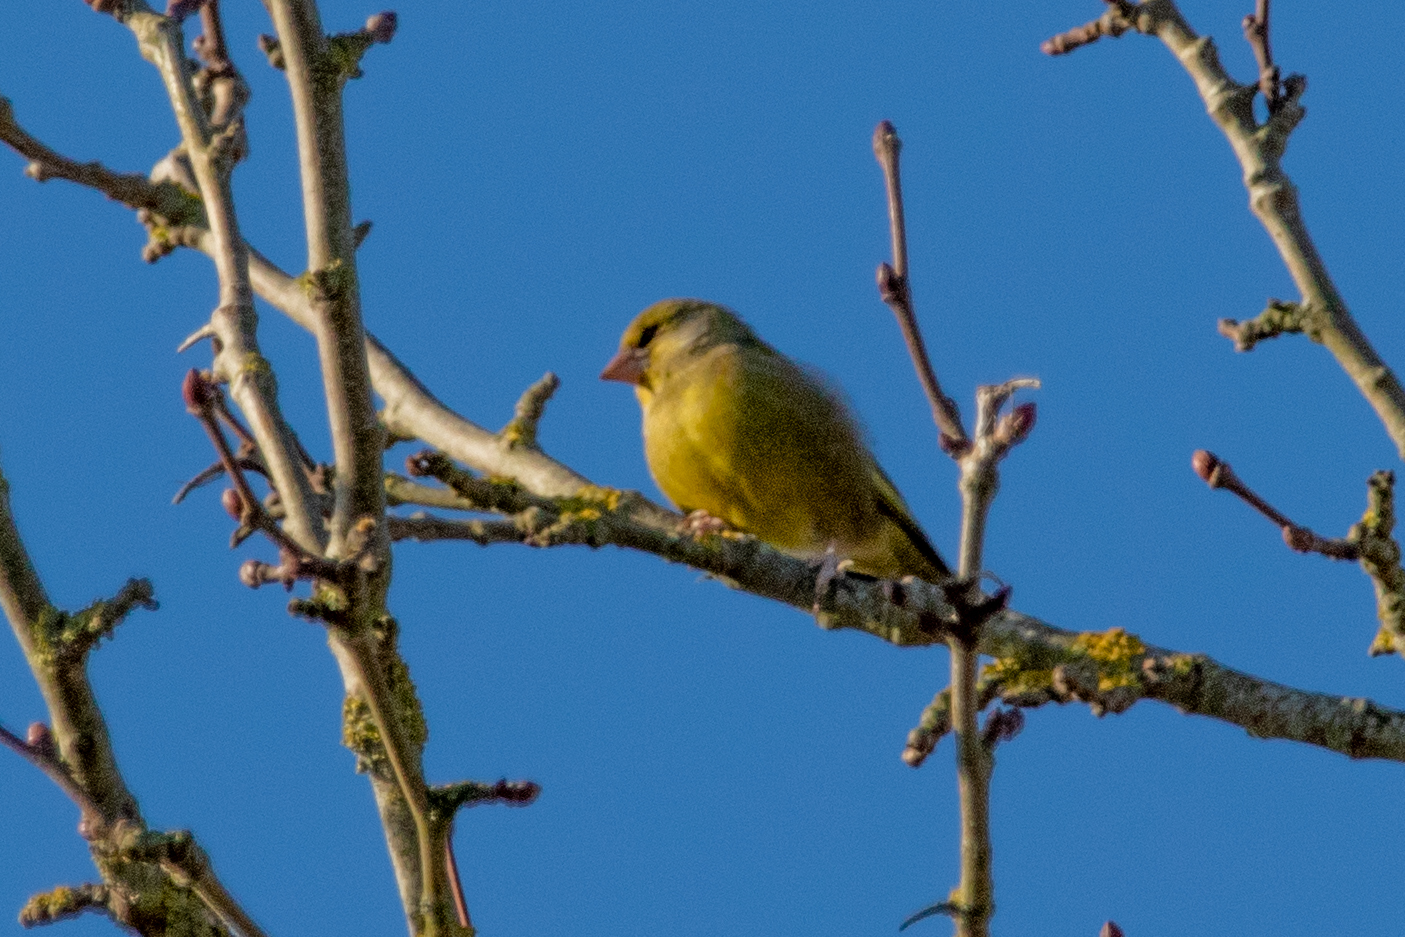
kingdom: Plantae
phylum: Tracheophyta
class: Liliopsida
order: Poales
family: Poaceae
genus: Chloris
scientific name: Chloris chloris
